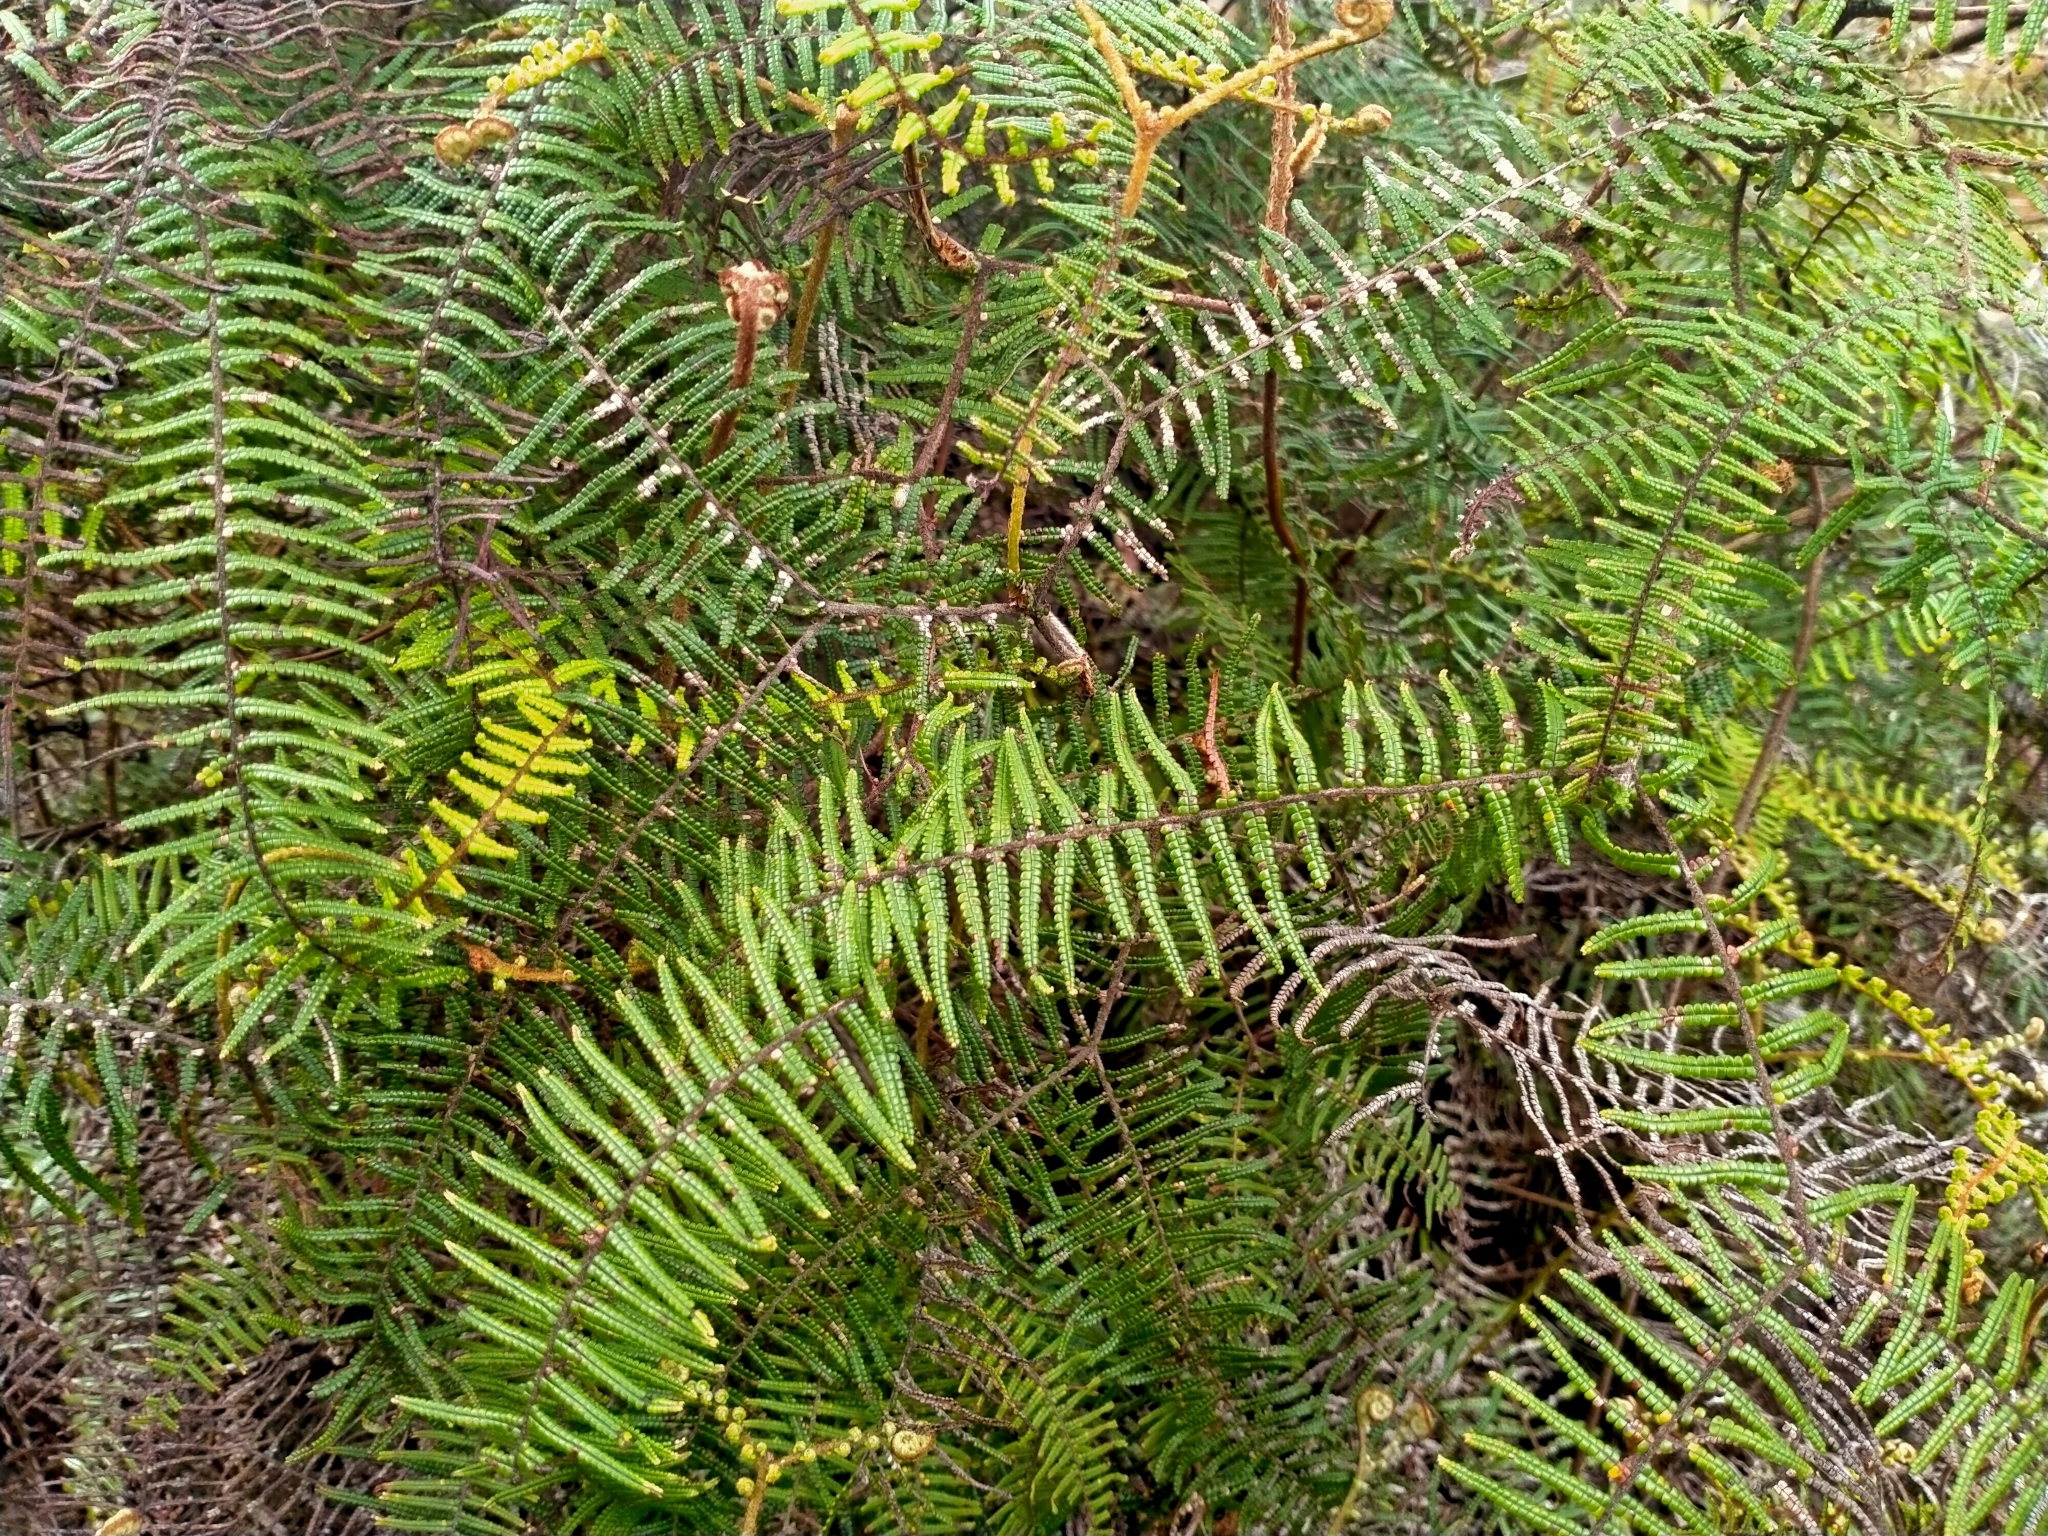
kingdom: Plantae
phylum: Tracheophyta
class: Polypodiopsida
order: Gleicheniales
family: Gleicheniaceae
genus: Gleichenia
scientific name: Gleichenia microphylla
